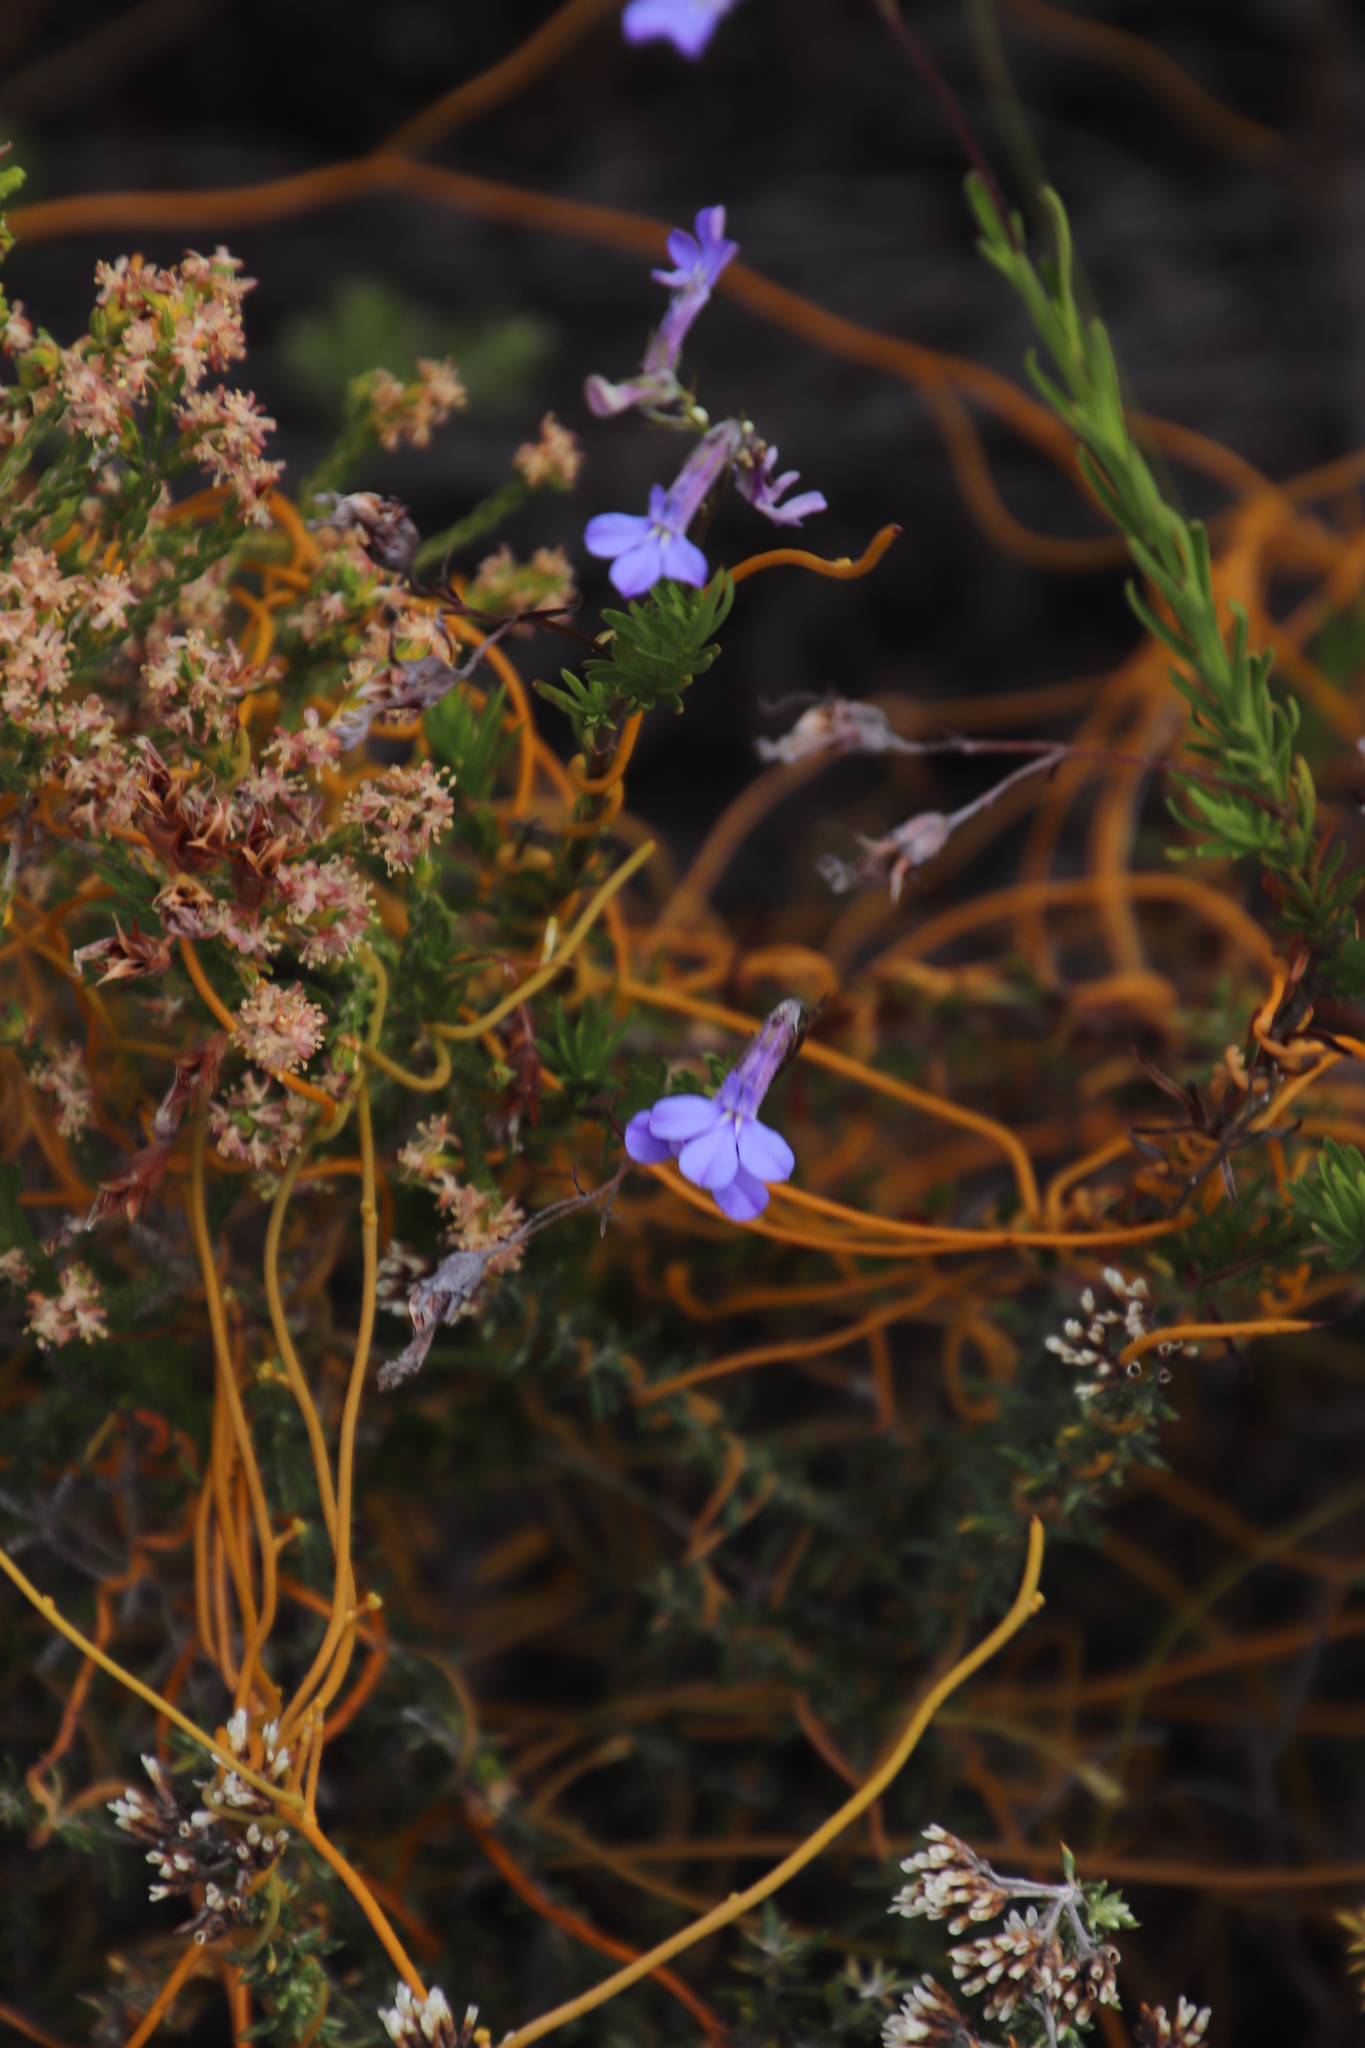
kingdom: Plantae
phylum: Tracheophyta
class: Magnoliopsida
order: Asterales
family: Campanulaceae
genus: Lobelia
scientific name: Lobelia pinifolia
